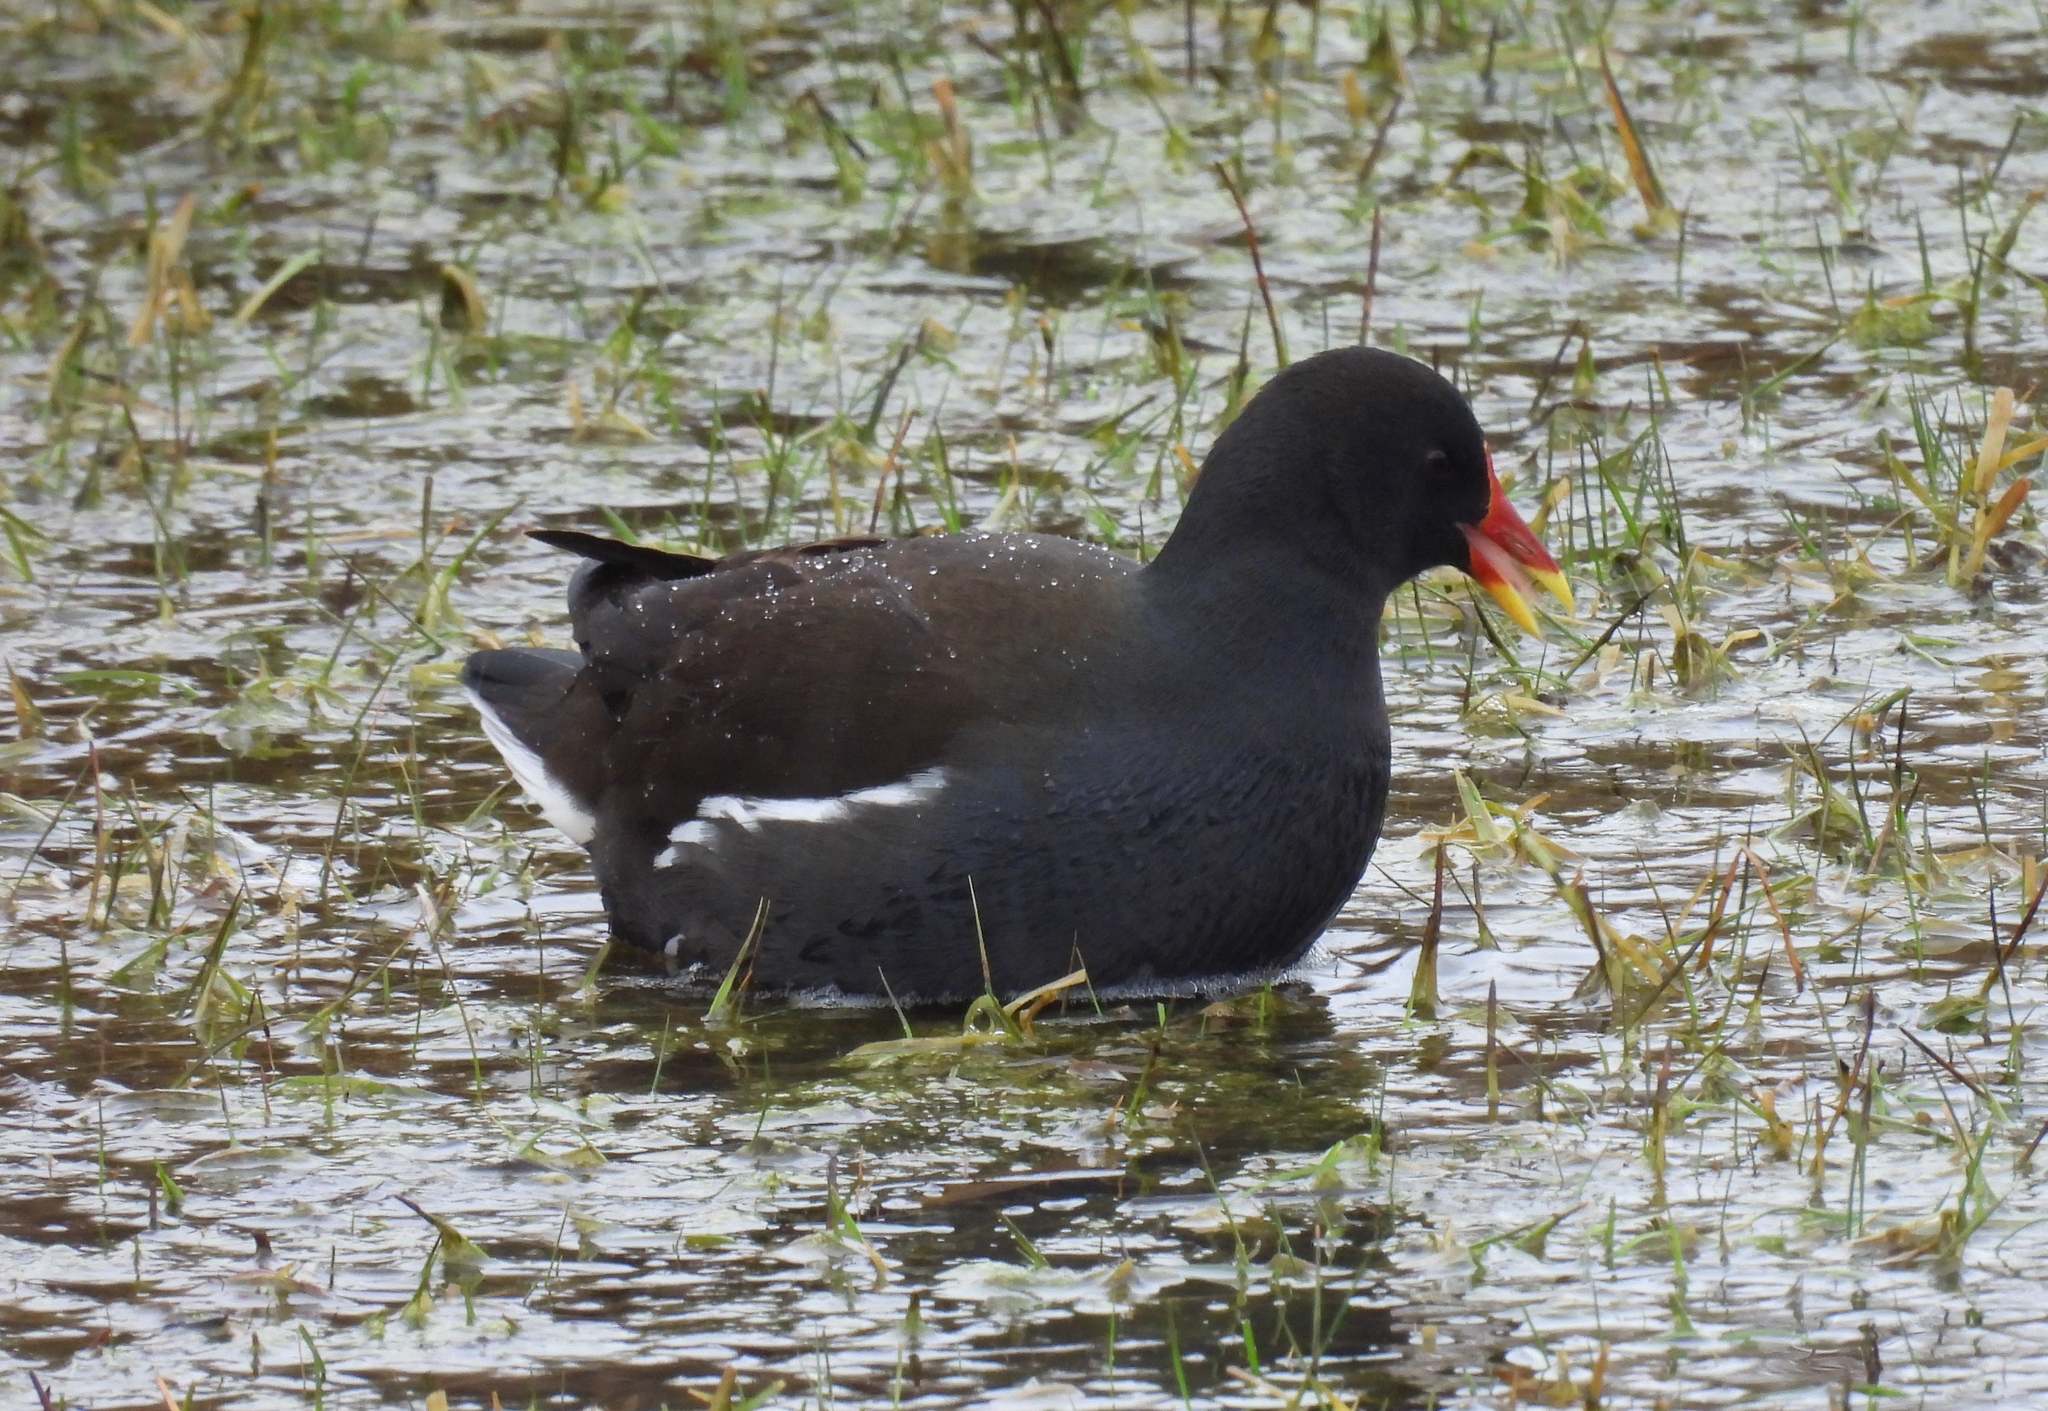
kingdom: Animalia
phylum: Chordata
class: Aves
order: Gruiformes
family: Rallidae
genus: Gallinula
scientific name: Gallinula chloropus
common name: Common moorhen
